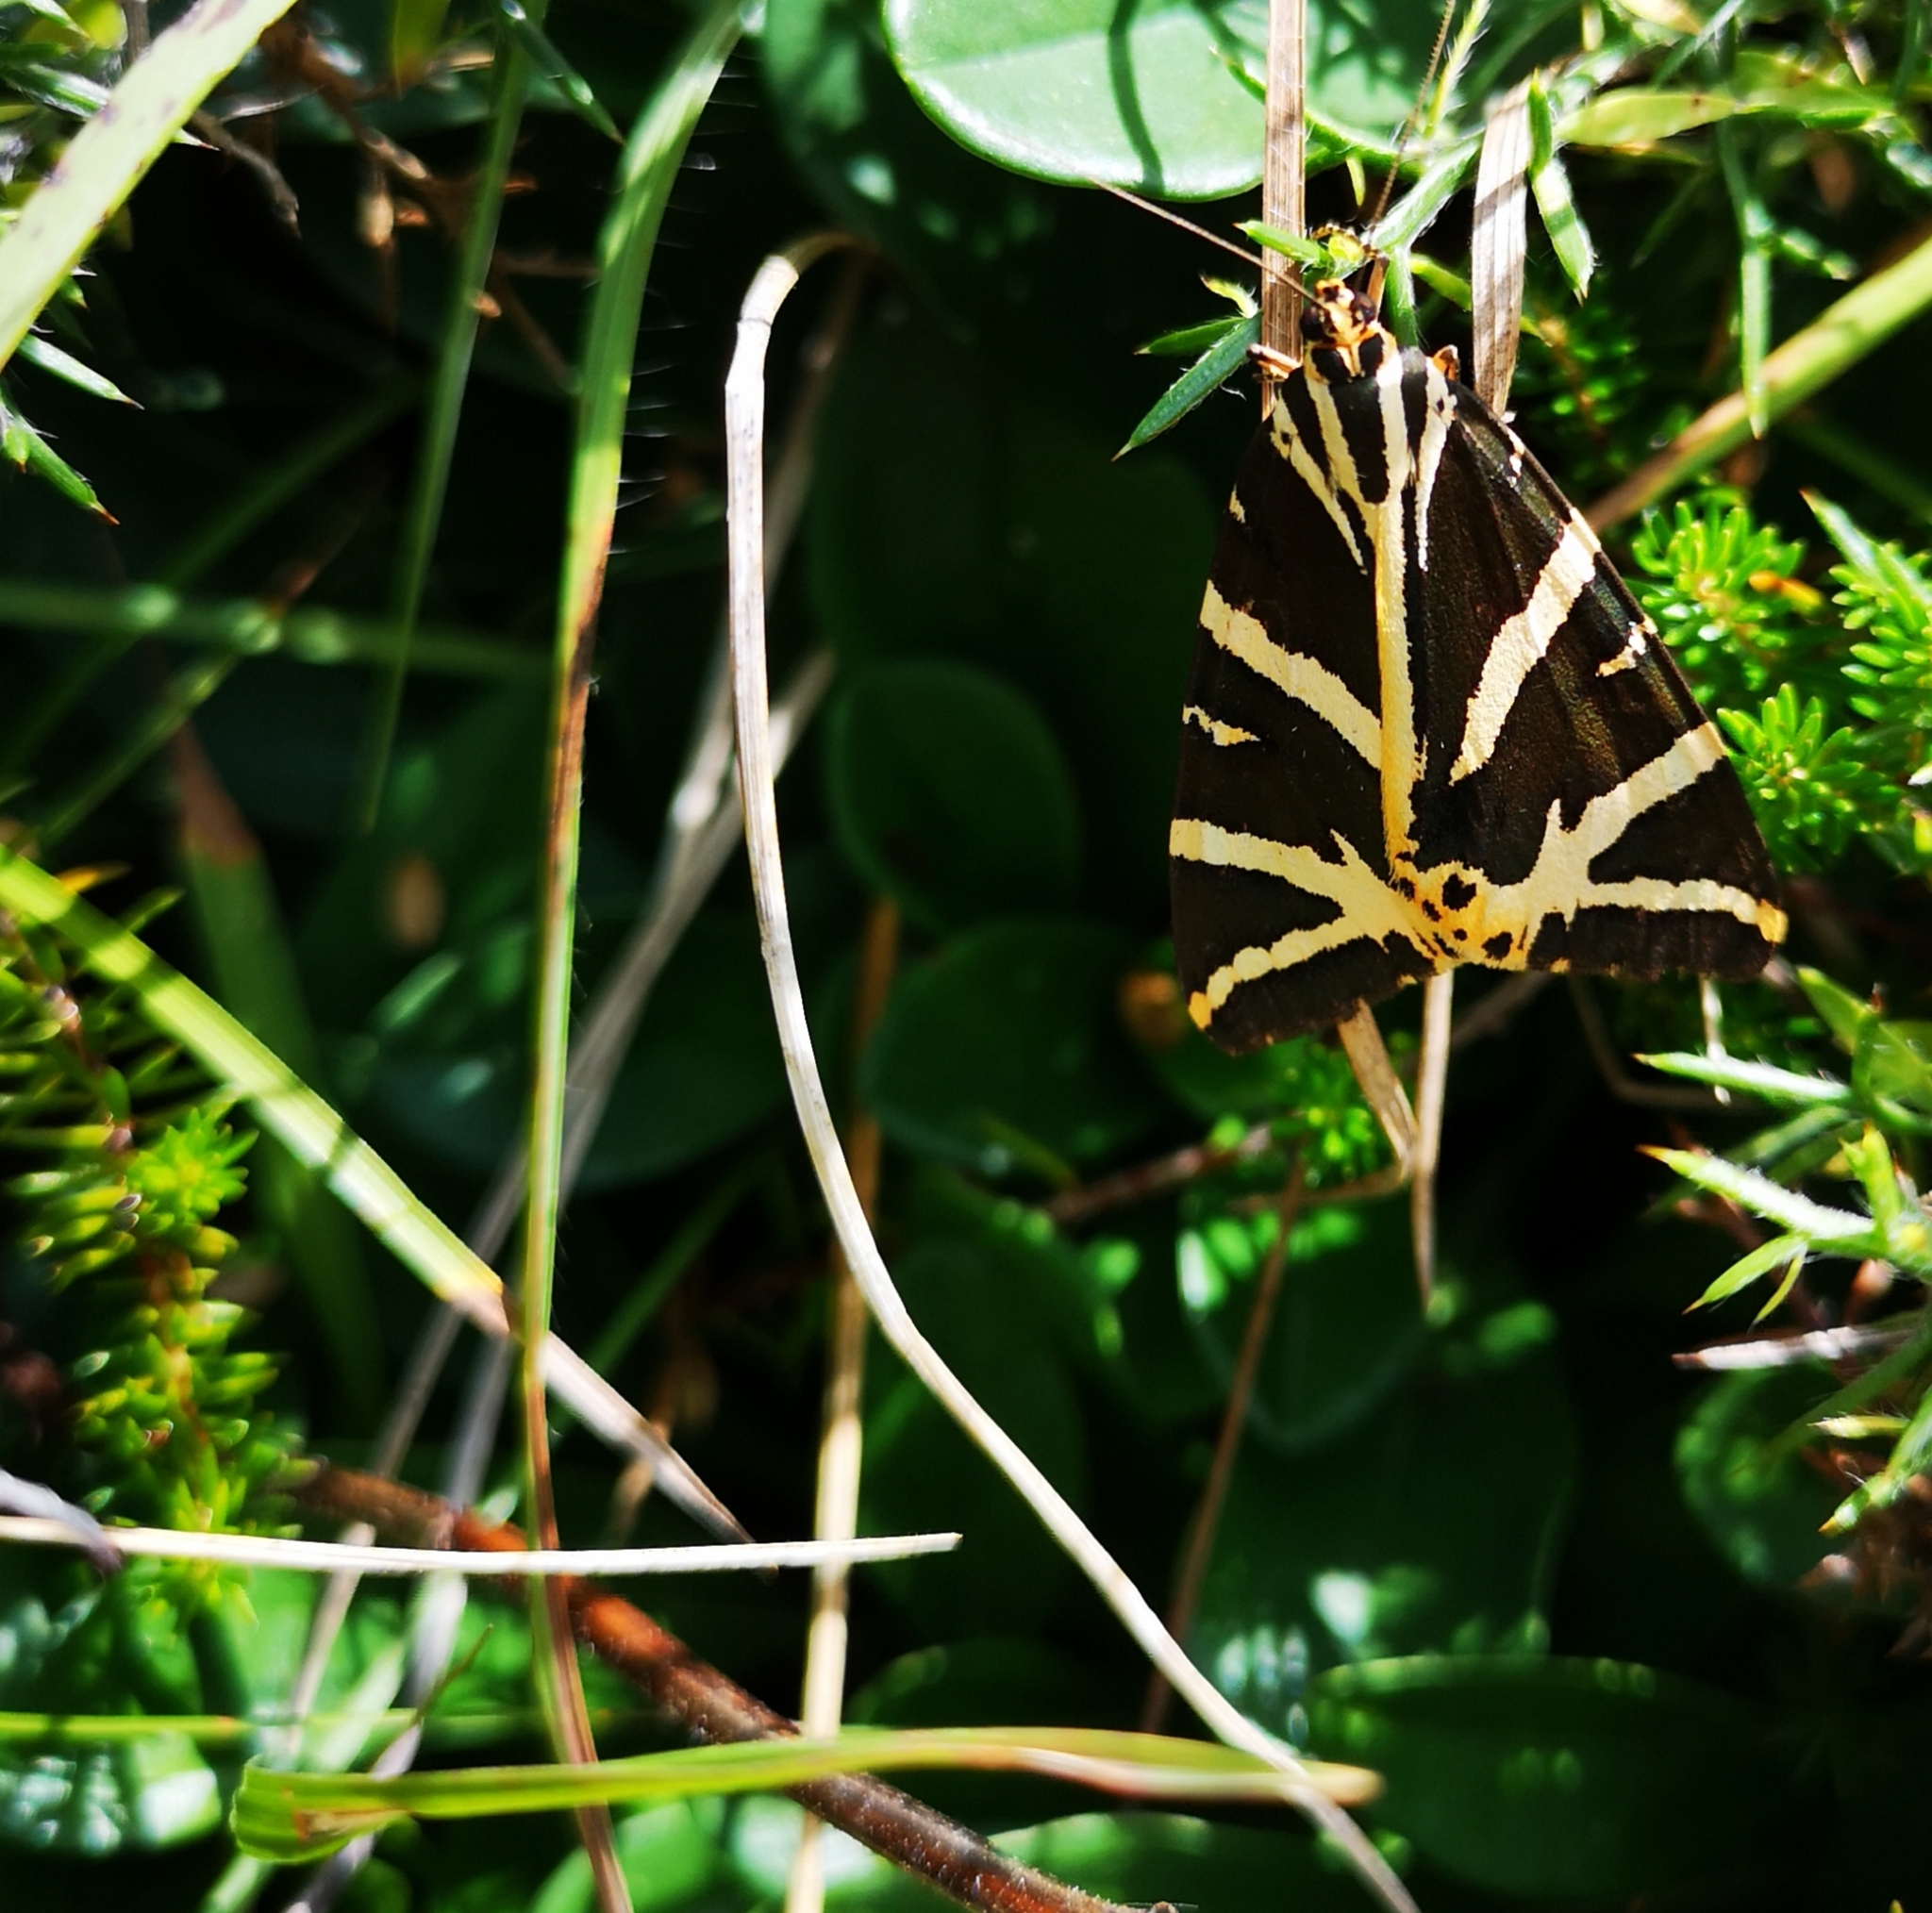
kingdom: Animalia
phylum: Arthropoda
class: Insecta
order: Lepidoptera
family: Erebidae
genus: Euplagia
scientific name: Euplagia quadripunctaria
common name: Jersey tiger
